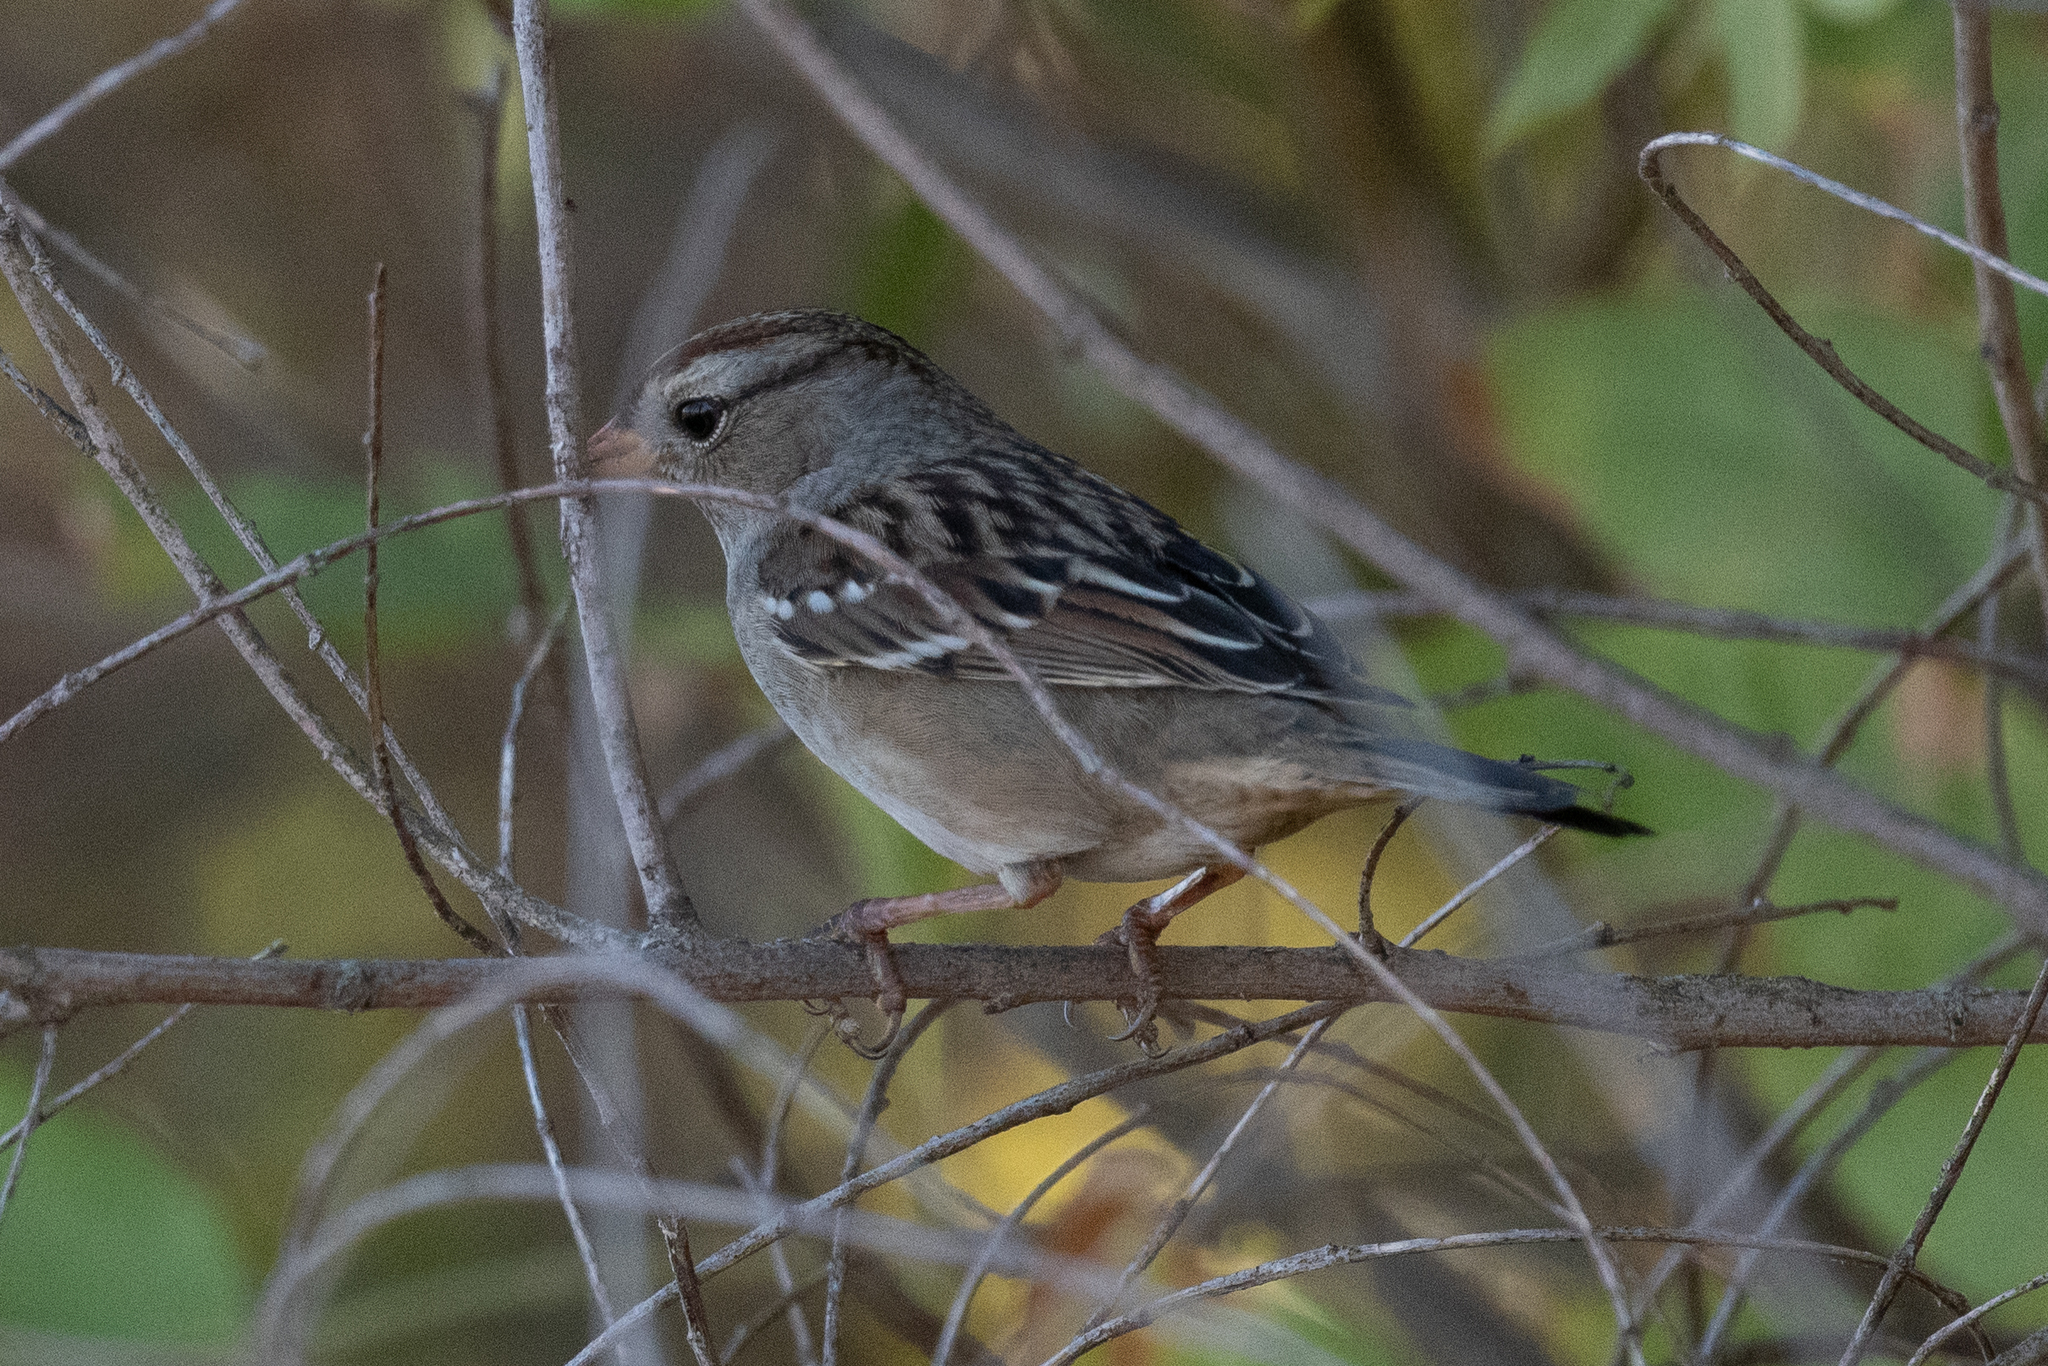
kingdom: Animalia
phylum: Chordata
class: Aves
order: Passeriformes
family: Passerellidae
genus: Zonotrichia
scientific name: Zonotrichia leucophrys
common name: White-crowned sparrow
